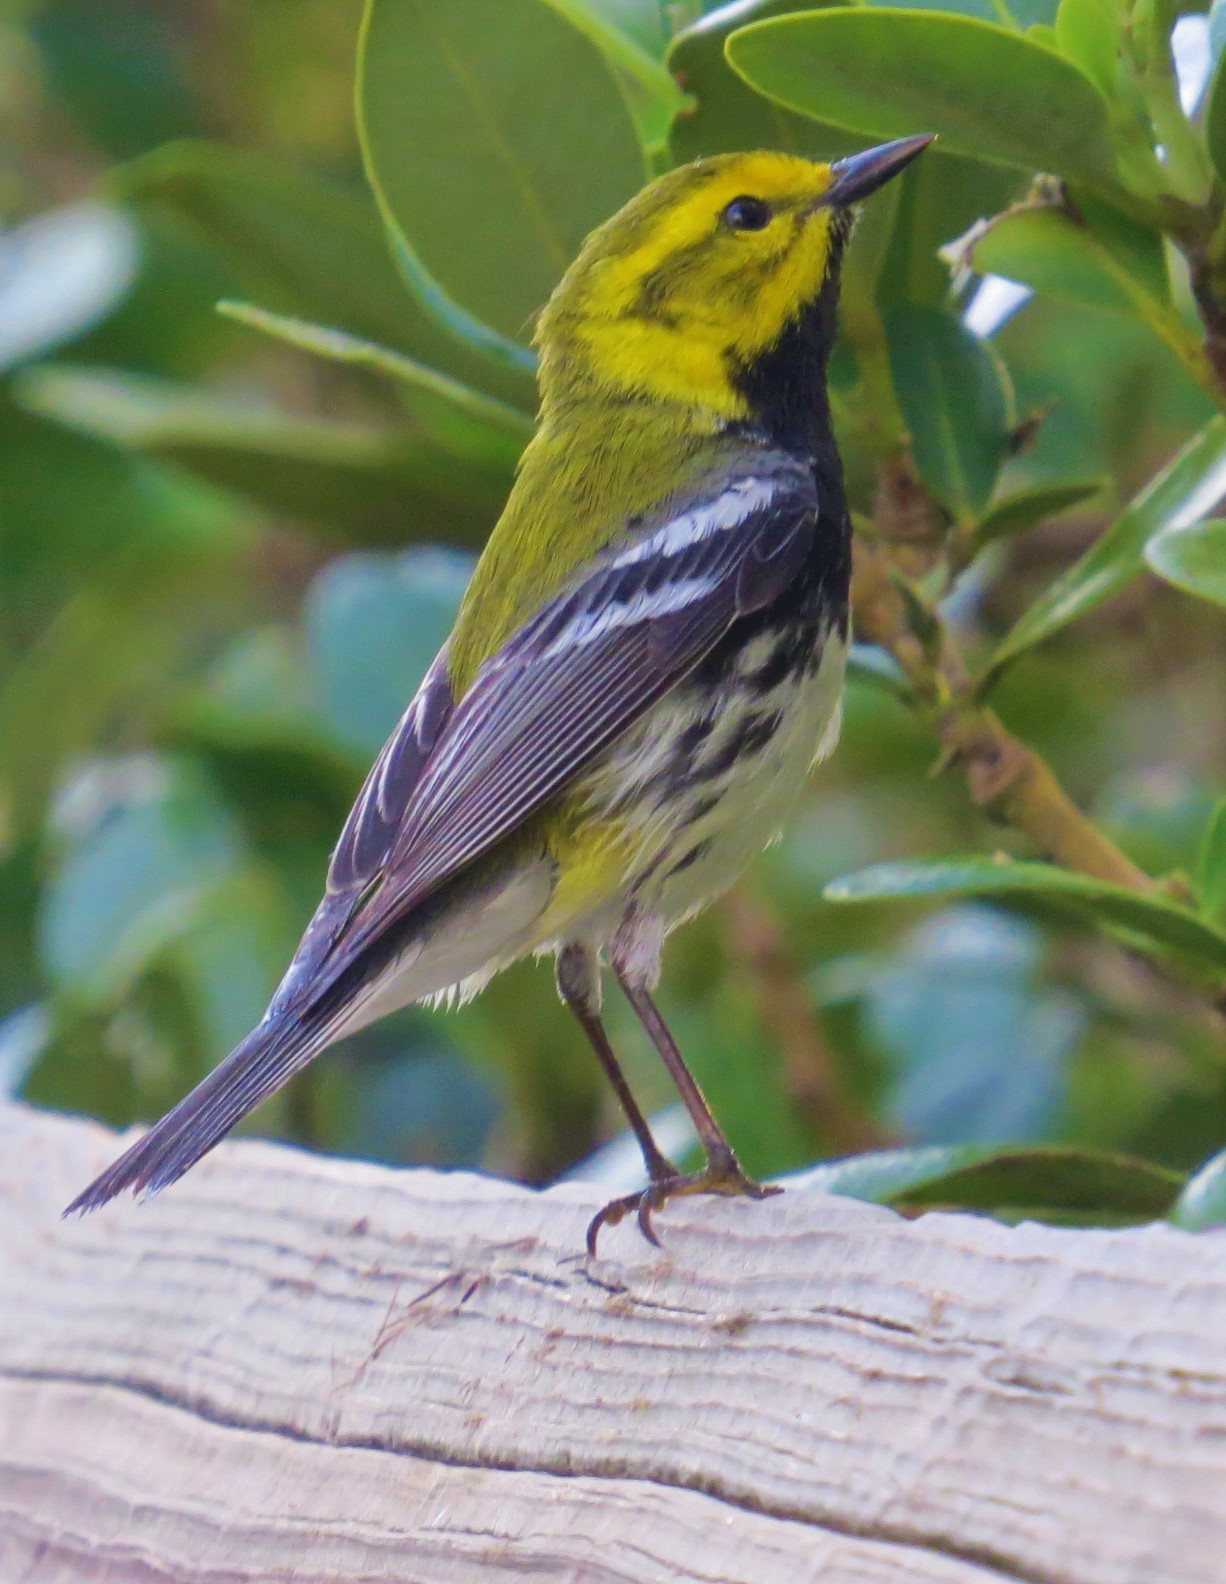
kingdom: Animalia
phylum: Chordata
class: Aves
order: Passeriformes
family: Parulidae
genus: Setophaga
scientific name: Setophaga virens
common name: Black-throated green warbler
